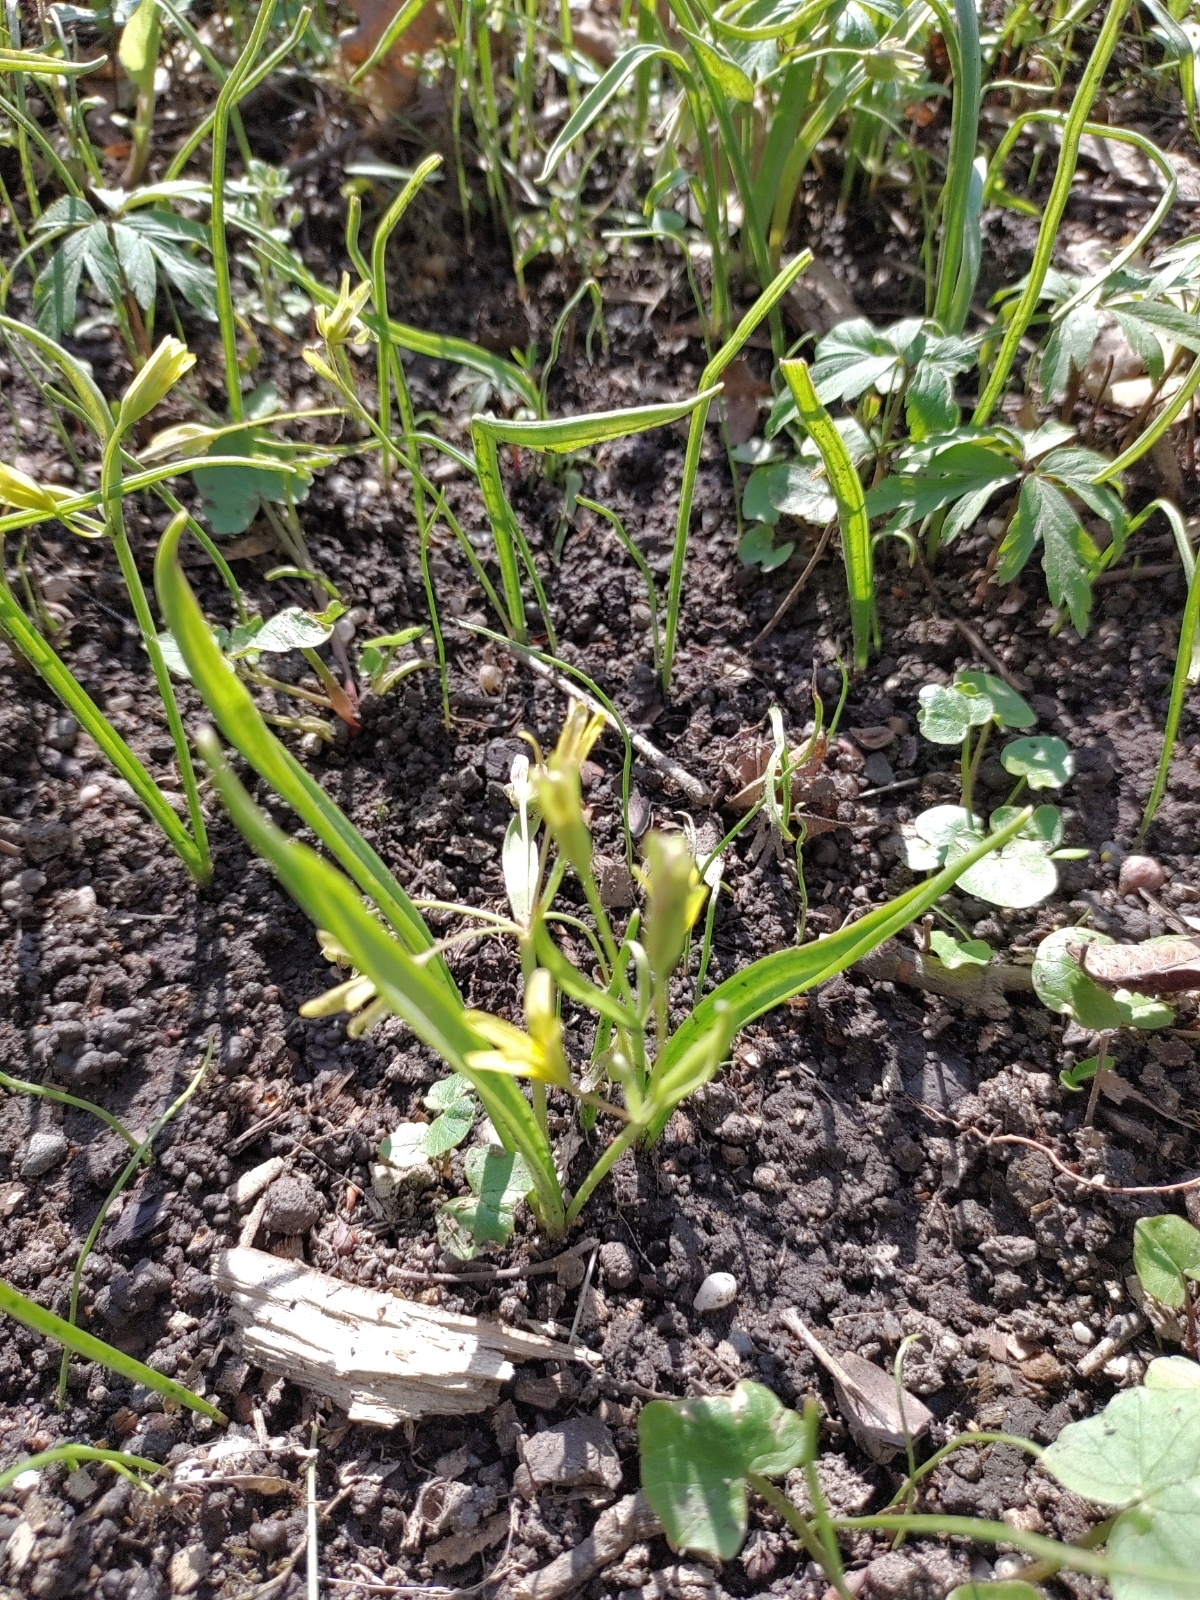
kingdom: Plantae
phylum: Tracheophyta
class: Liliopsida
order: Liliales
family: Liliaceae
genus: Gagea
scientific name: Gagea lutea
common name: Yellow star-of-bethlehem
